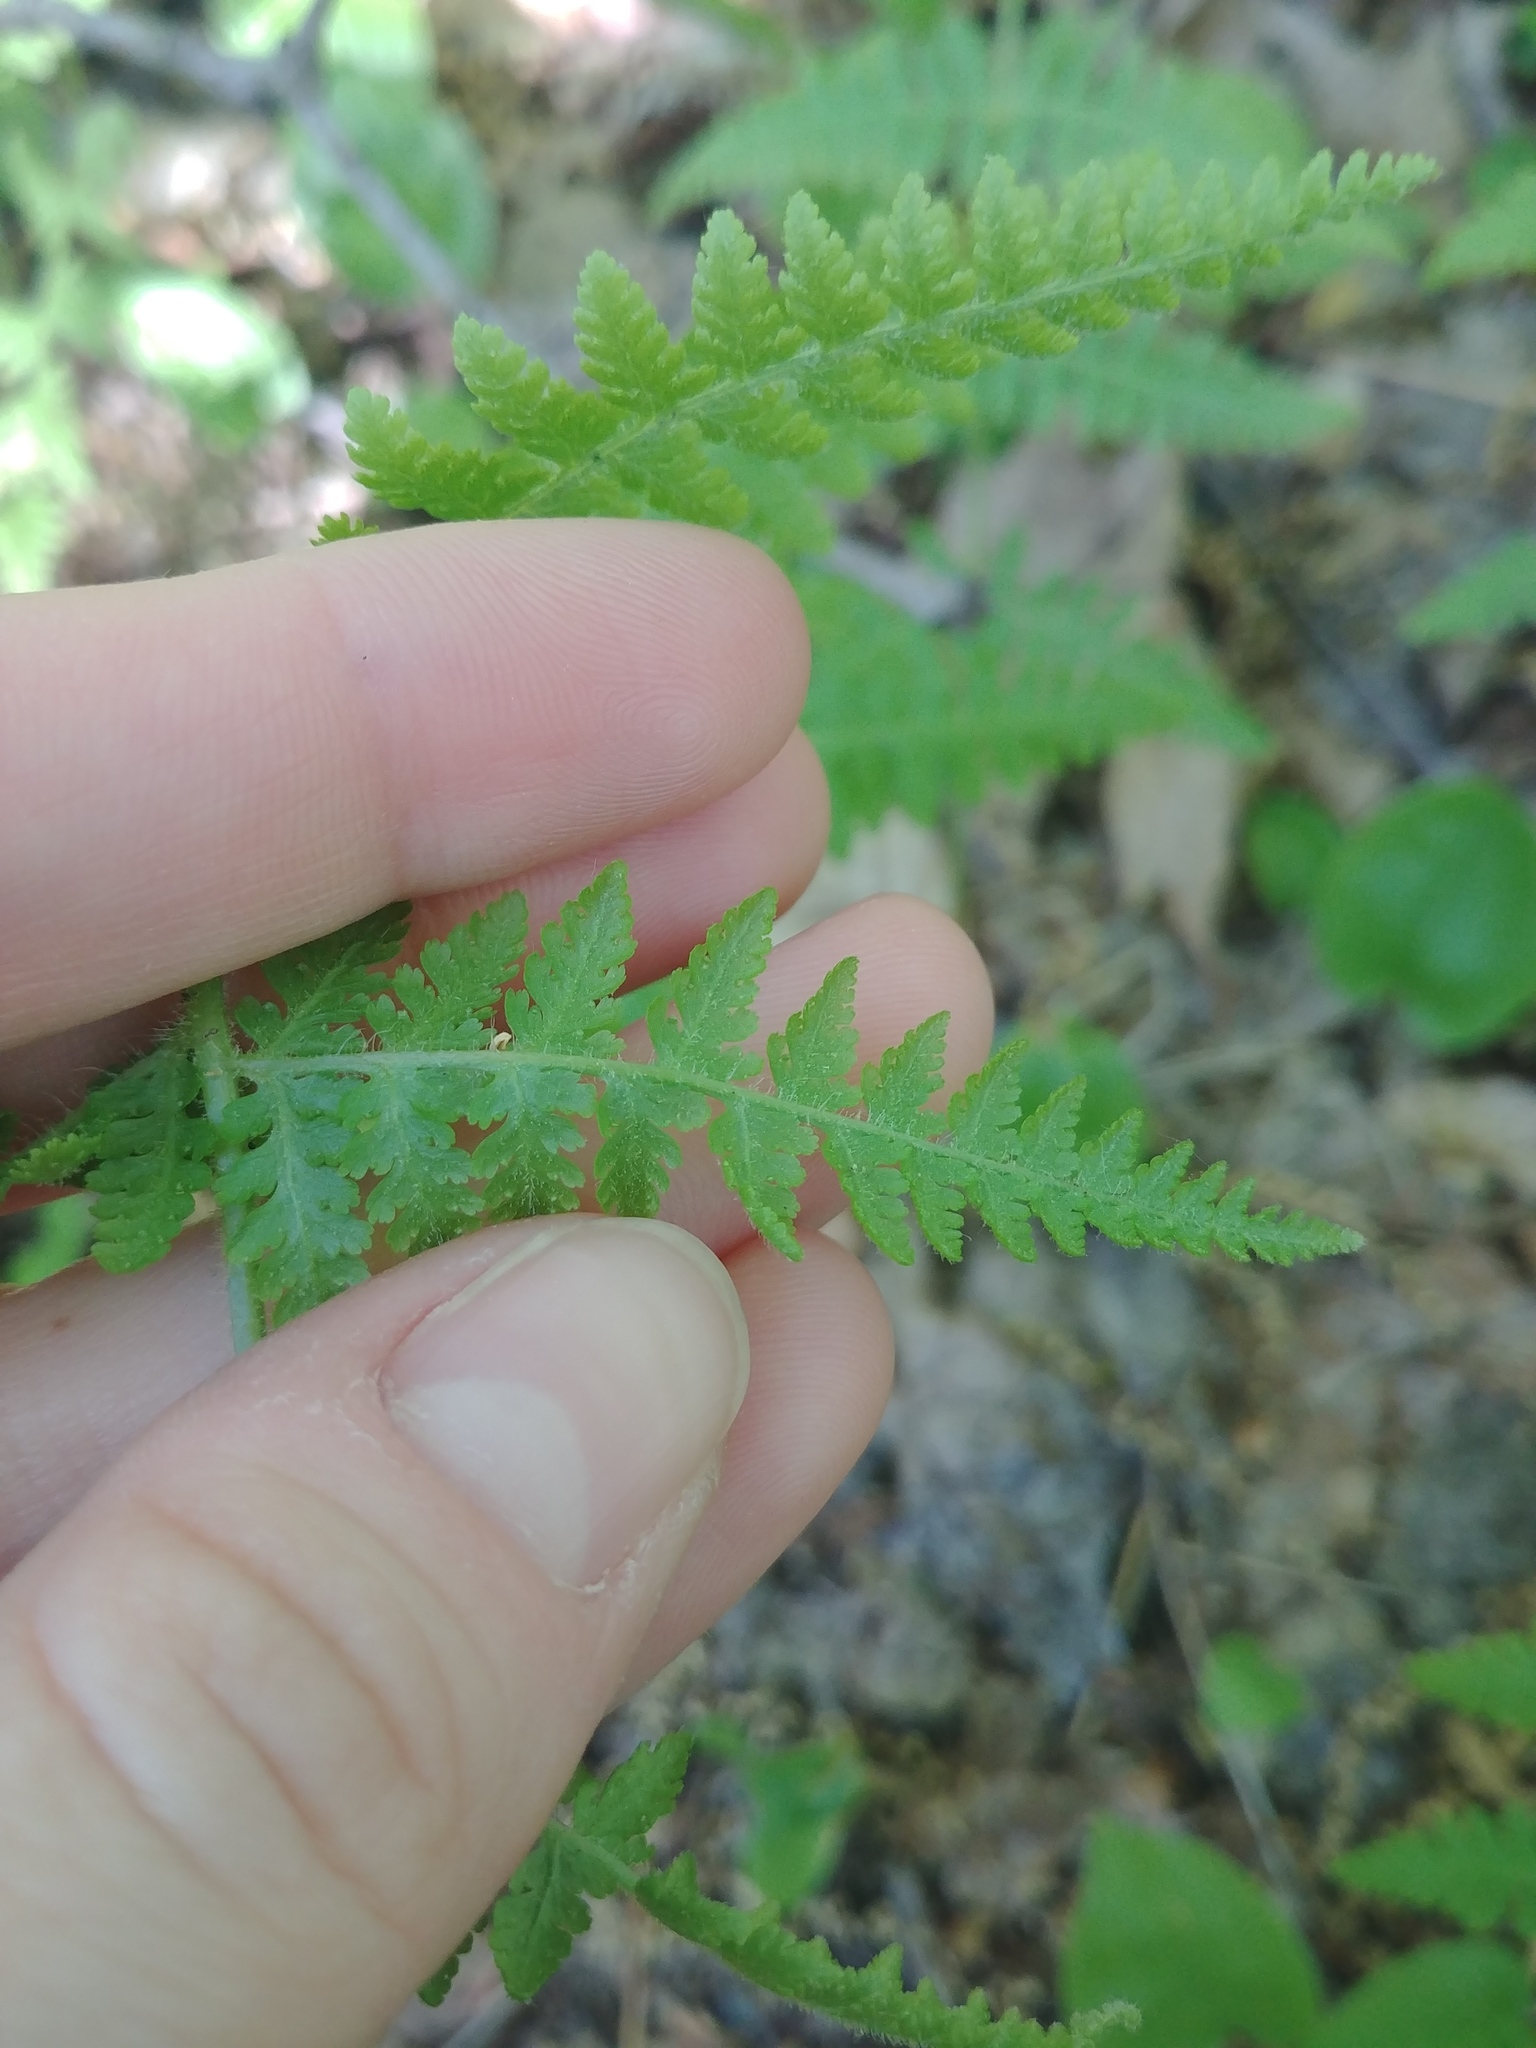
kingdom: Plantae
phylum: Tracheophyta
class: Polypodiopsida
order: Polypodiales
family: Dennstaedtiaceae
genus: Sitobolium
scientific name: Sitobolium punctilobum
